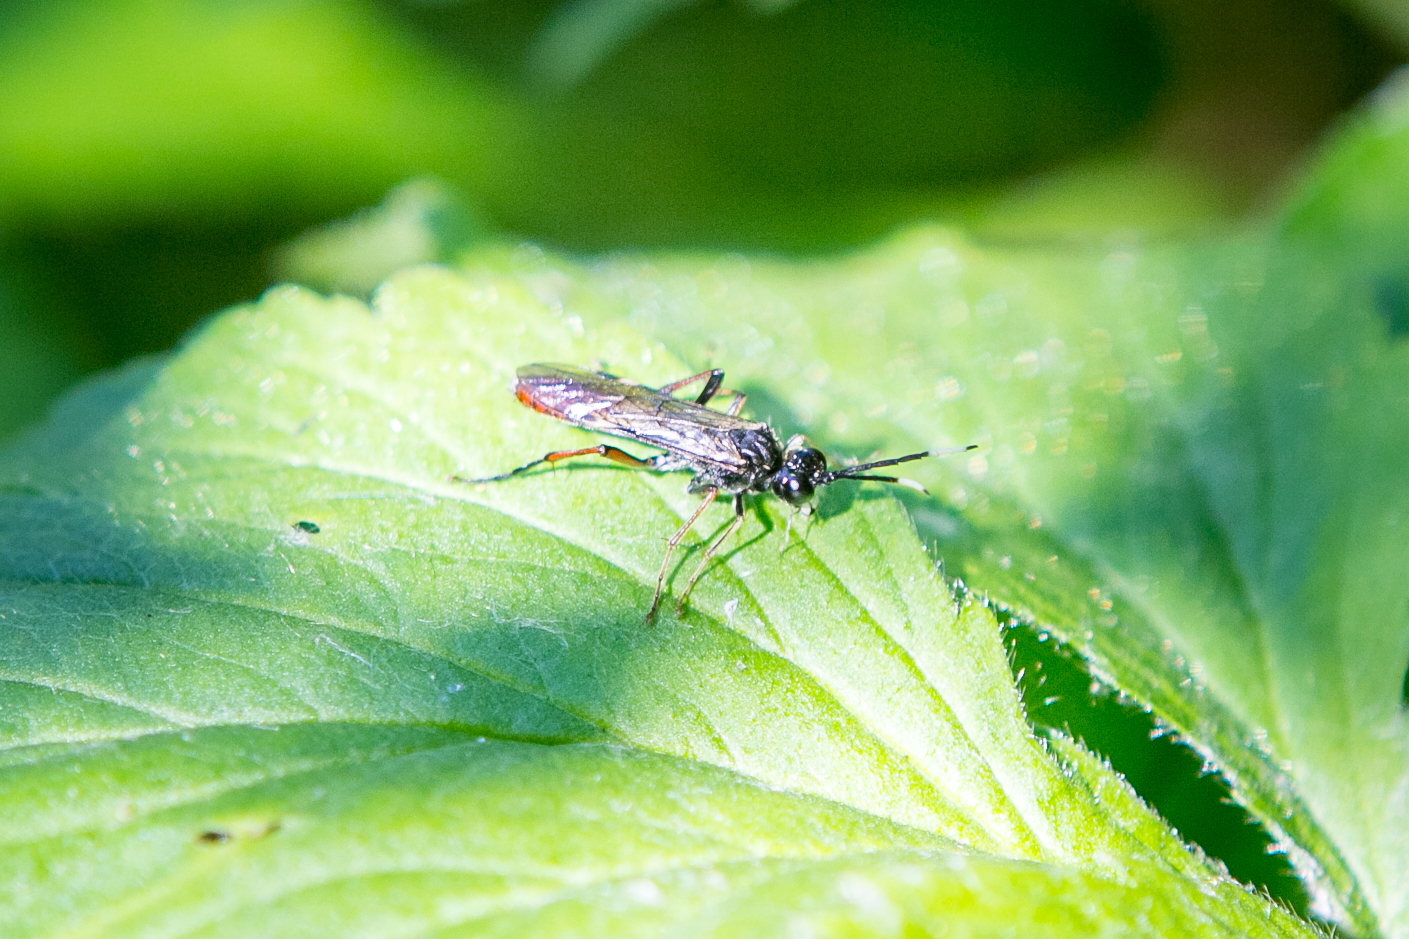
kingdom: Animalia
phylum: Arthropoda
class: Insecta
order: Hymenoptera
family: Tenthredinidae
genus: Tenthredo
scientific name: Tenthredo livida
